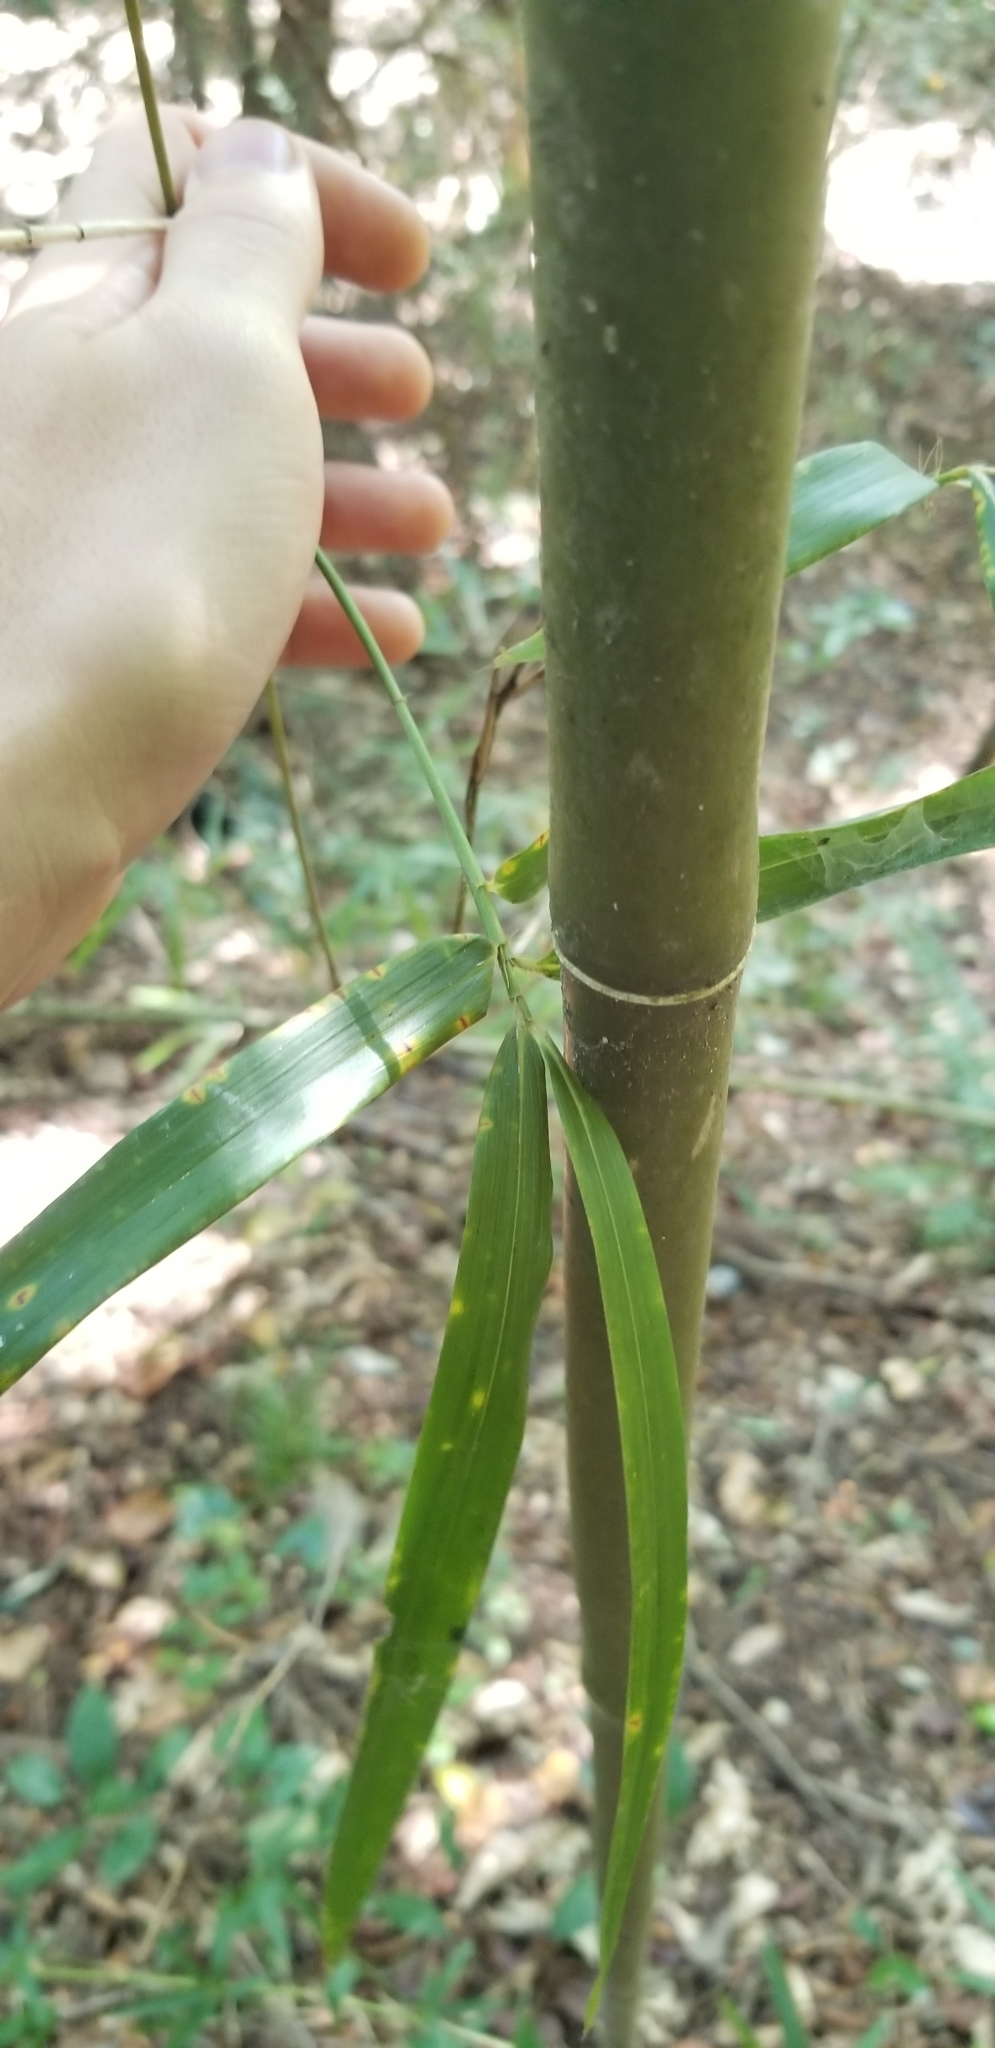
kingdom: Plantae
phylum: Tracheophyta
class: Liliopsida
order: Poales
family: Poaceae
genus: Arundinaria
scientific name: Arundinaria gigantea
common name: Giant cane
